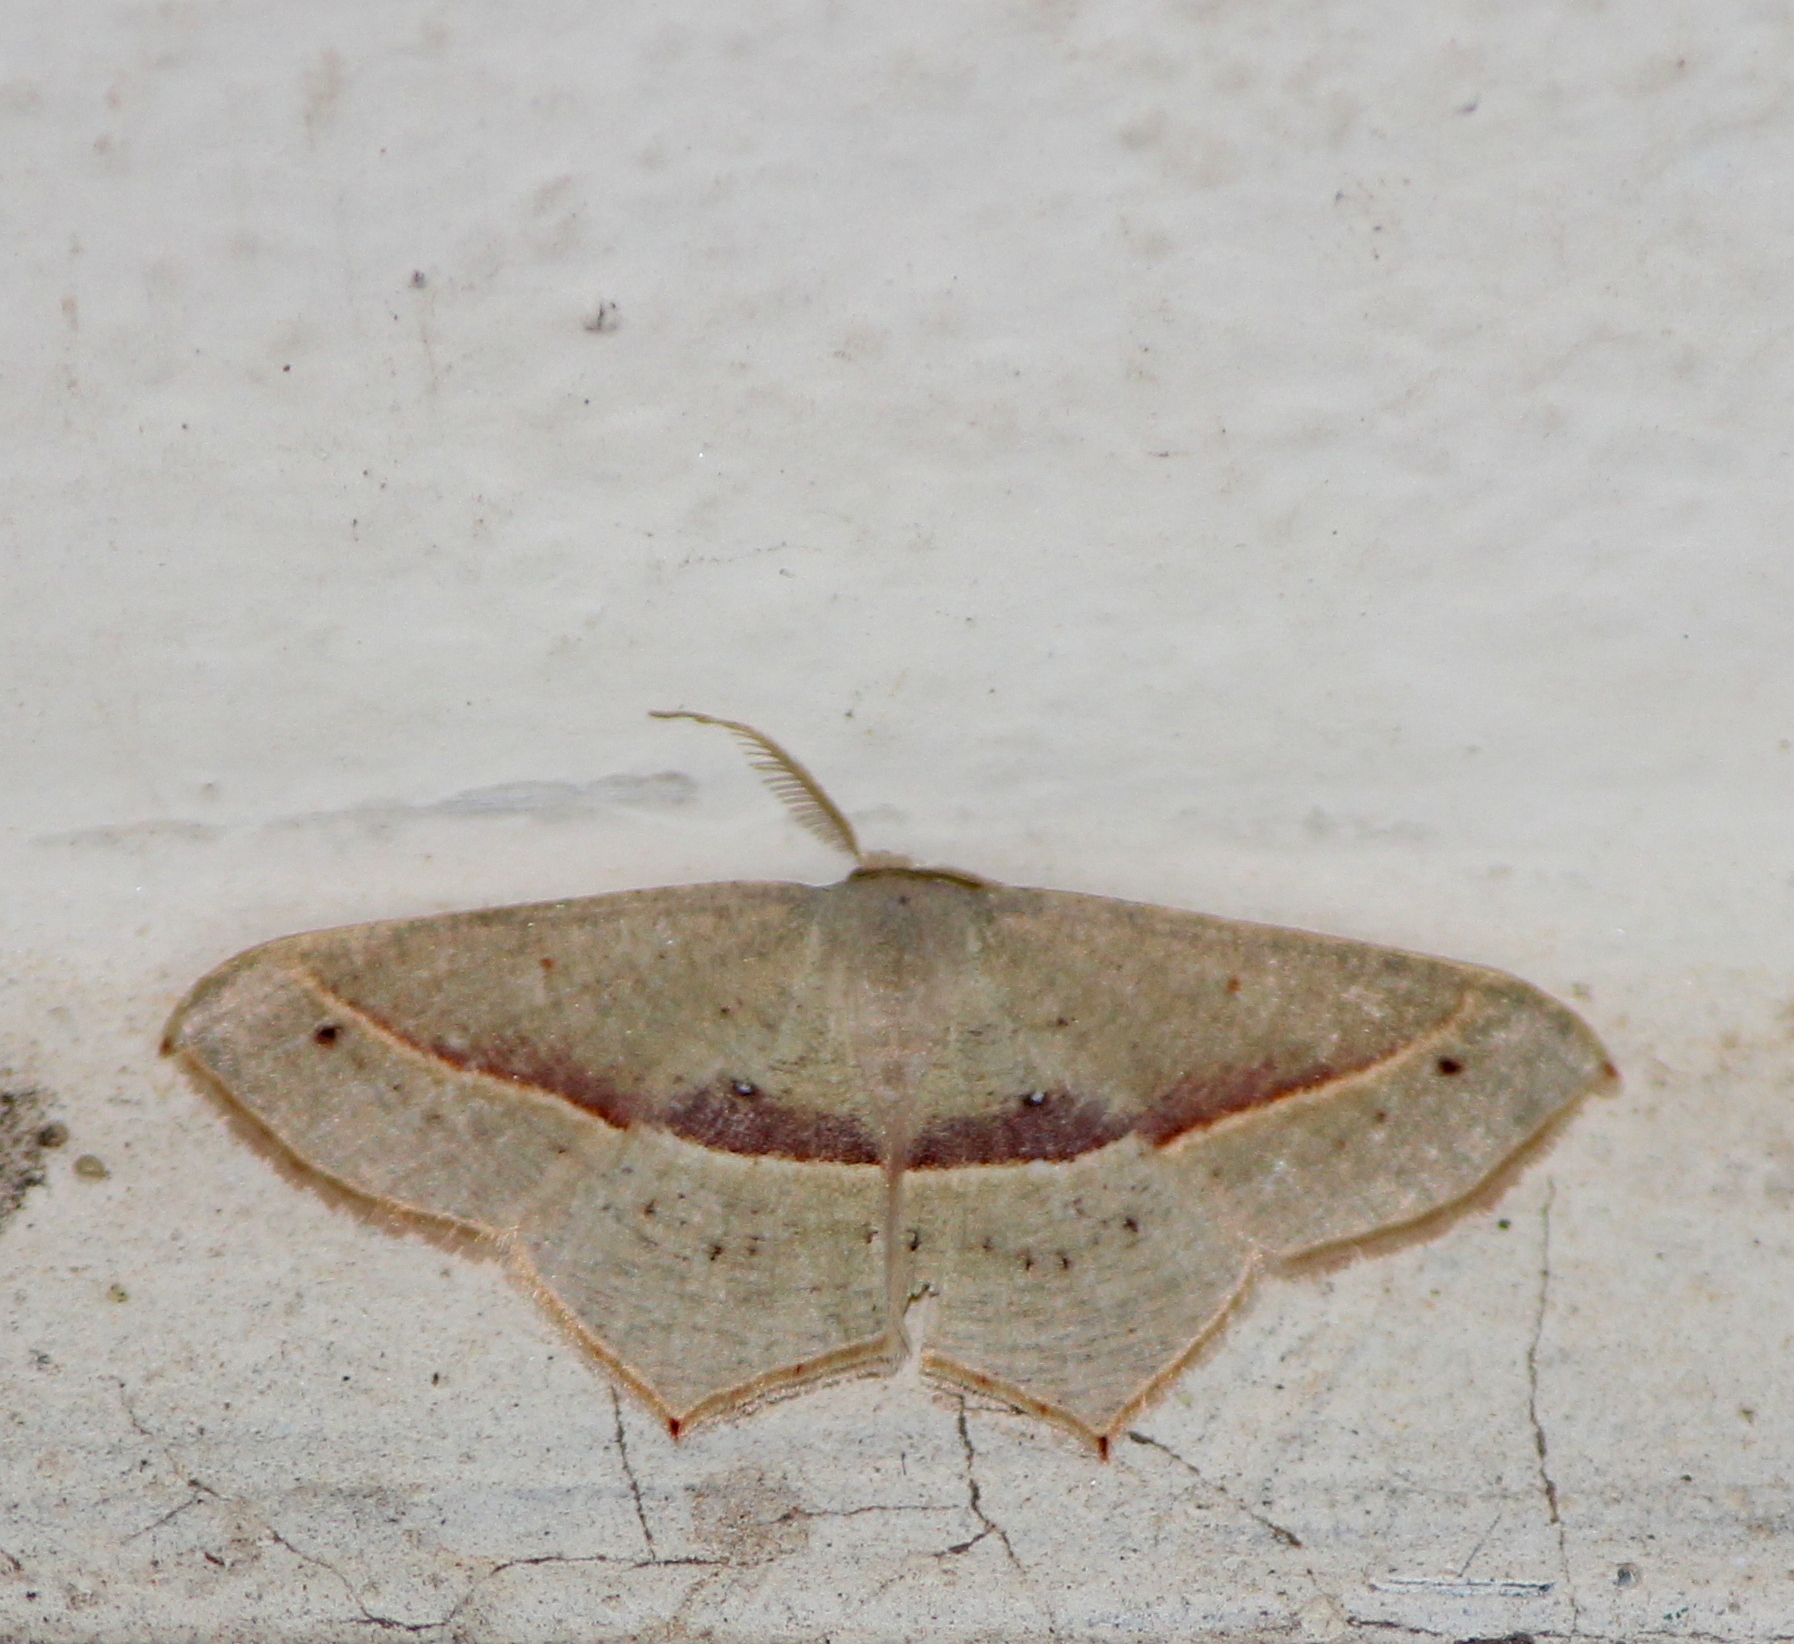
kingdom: Animalia
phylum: Arthropoda
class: Insecta
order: Lepidoptera
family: Geometridae
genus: Traminda
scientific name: Traminda mundissima
